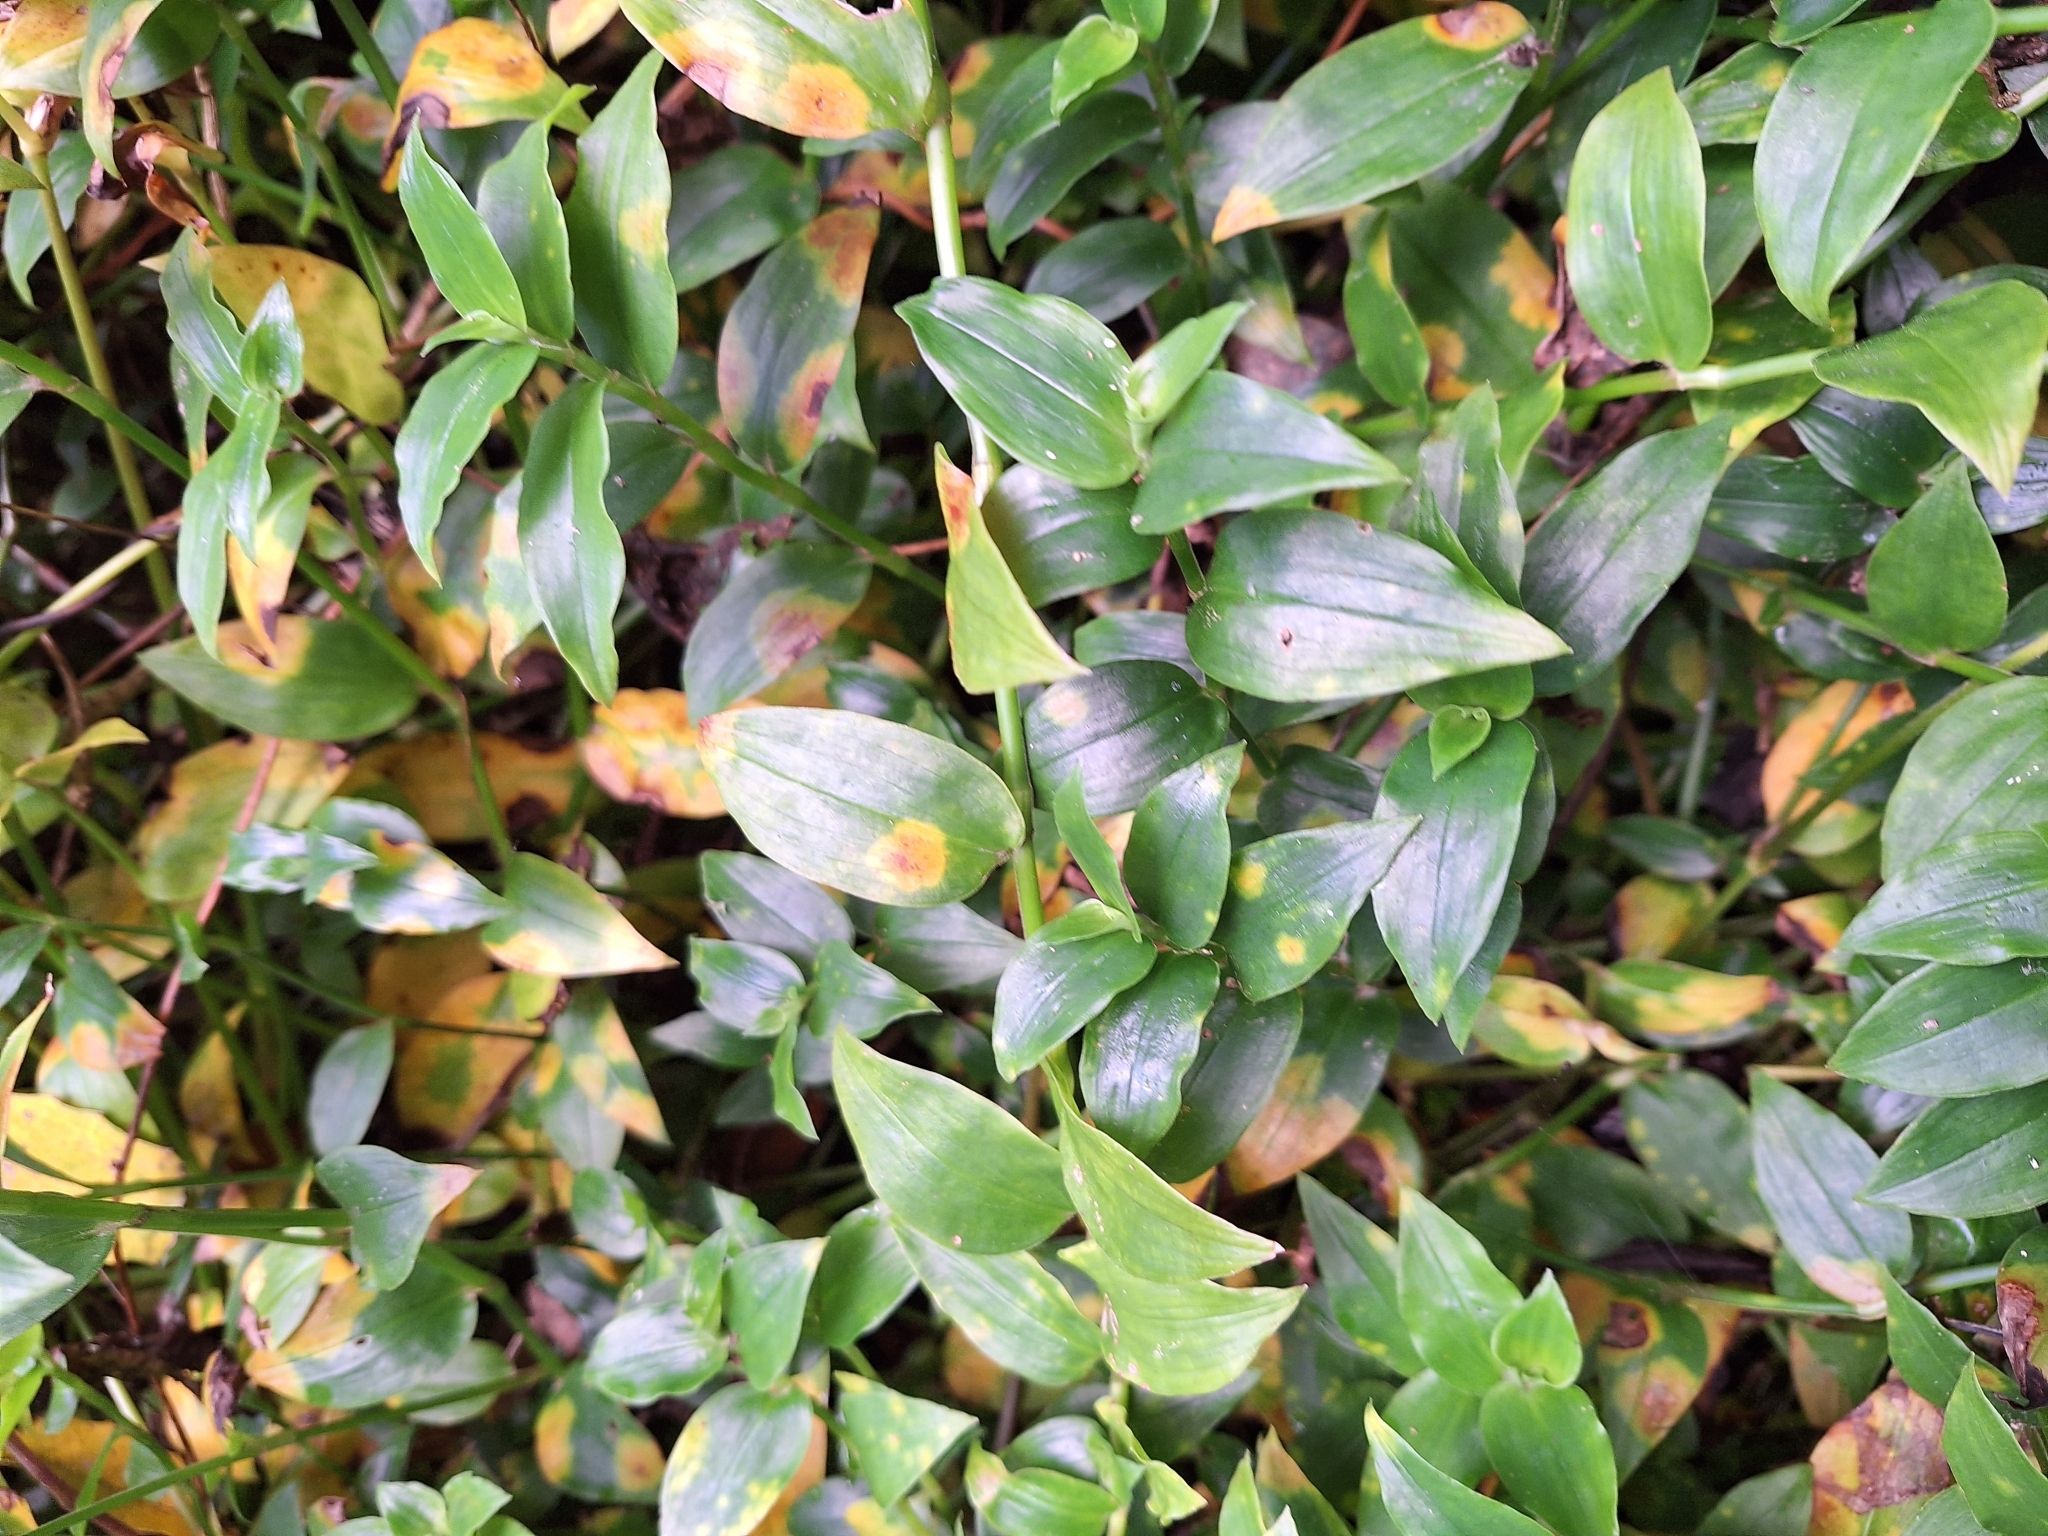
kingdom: Fungi
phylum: Basidiomycota
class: Exobasidiomycetes
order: Exobasidiales
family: Brachybasidiaceae
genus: Kordyana
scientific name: Kordyana brasiliensis
